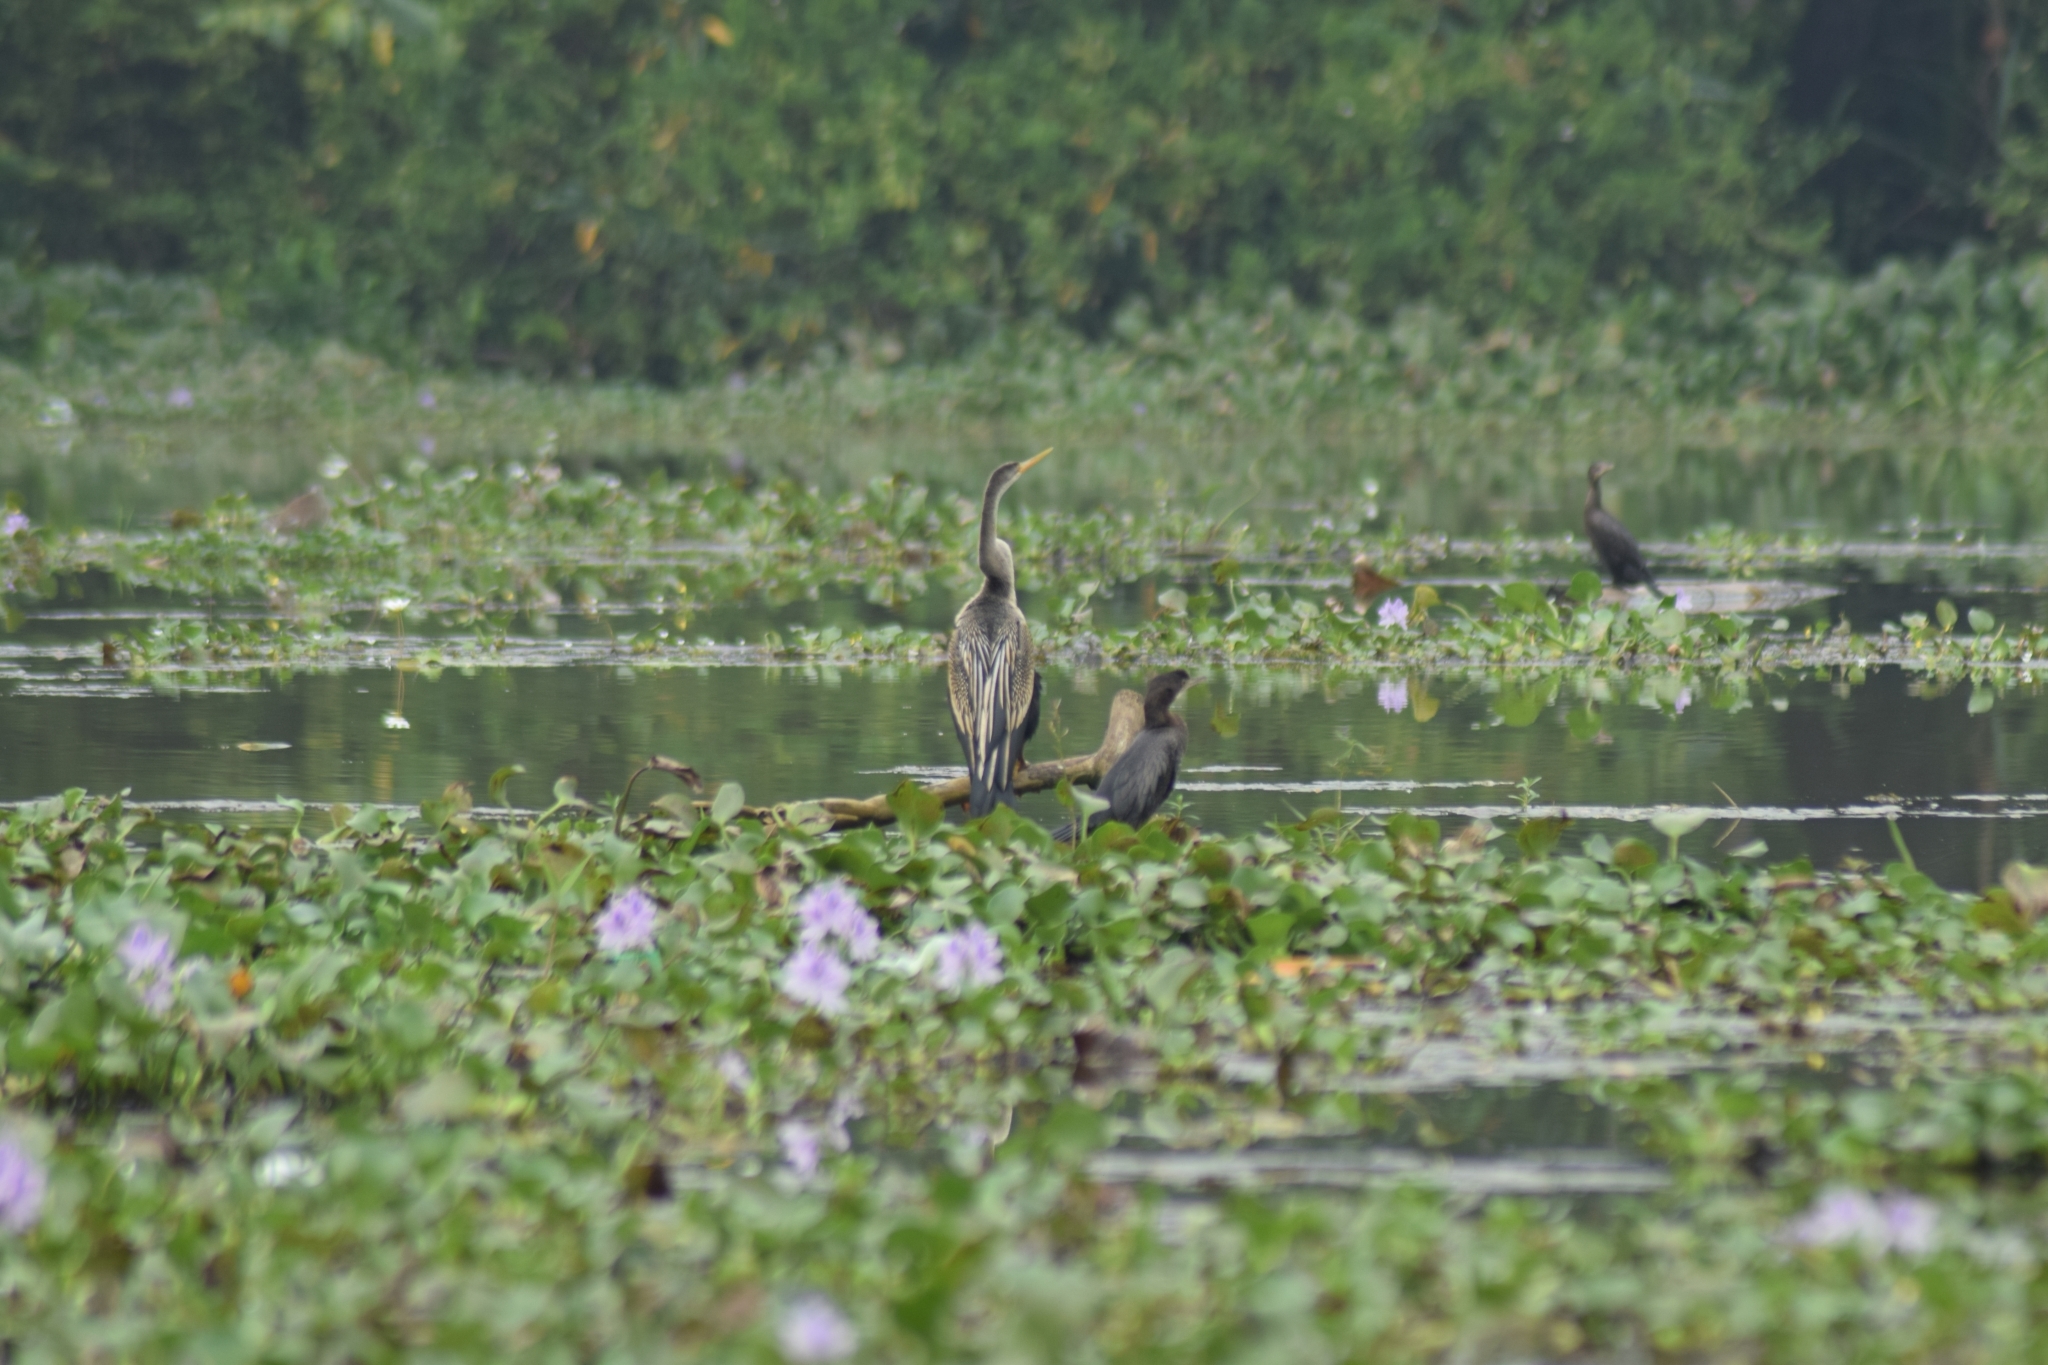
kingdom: Animalia
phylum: Chordata
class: Aves
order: Suliformes
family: Anhingidae
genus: Anhinga
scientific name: Anhinga melanogaster
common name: Oriental darter
